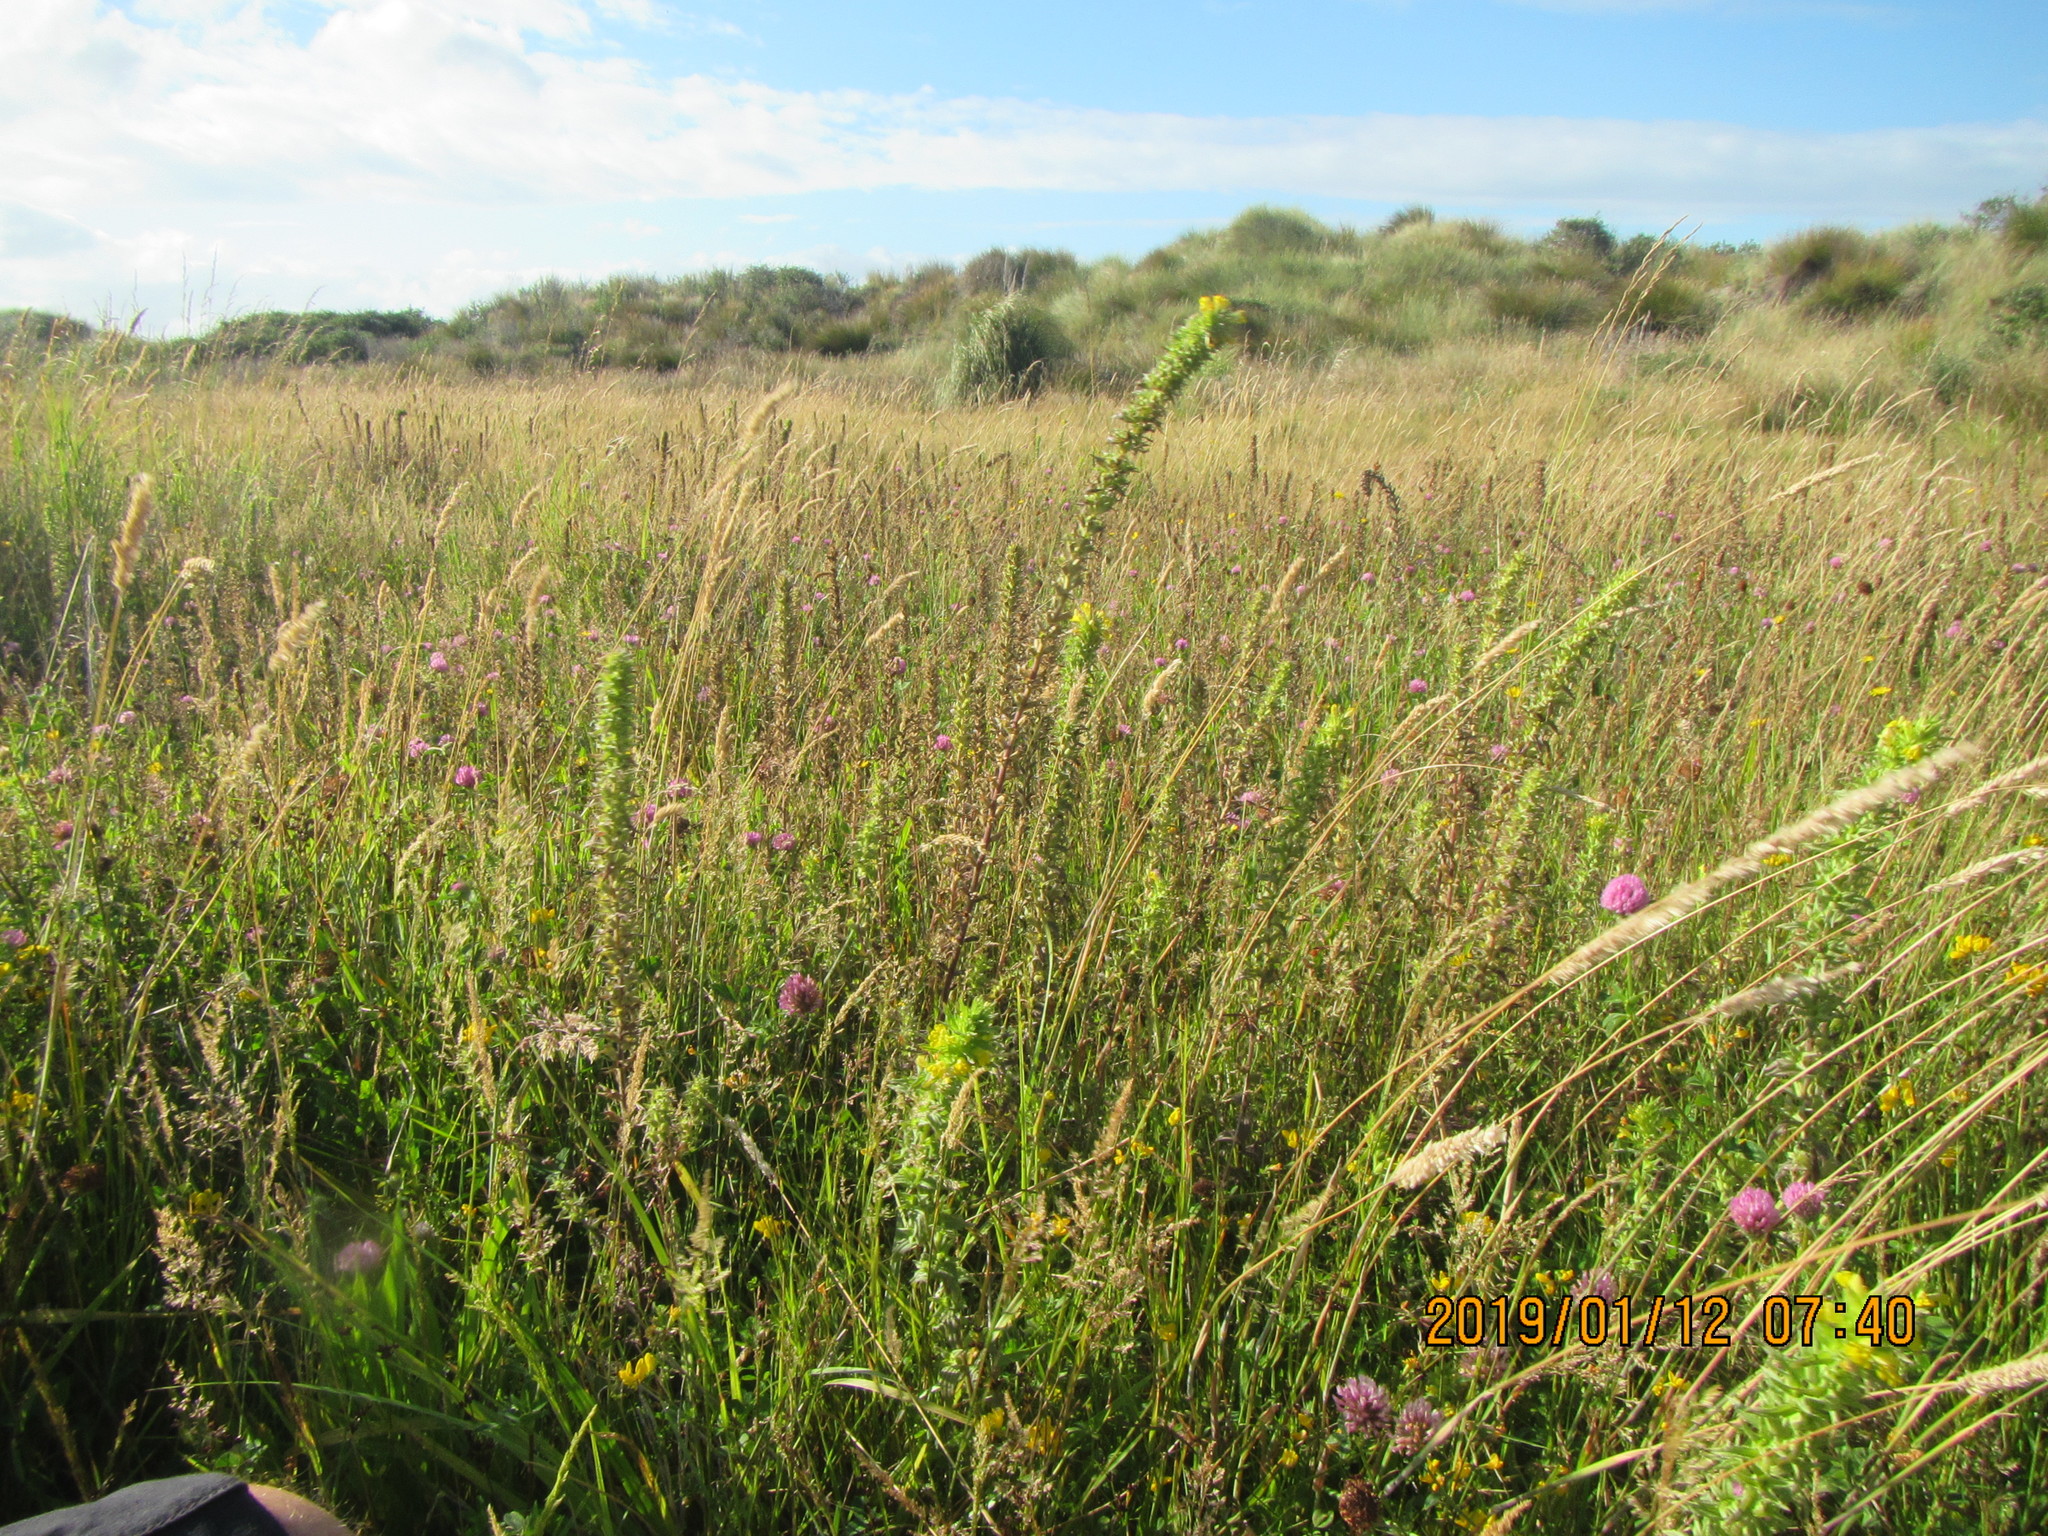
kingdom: Plantae
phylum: Tracheophyta
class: Magnoliopsida
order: Lamiales
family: Orobanchaceae
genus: Bellardia
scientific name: Bellardia viscosa
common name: Sticky parentucellia
